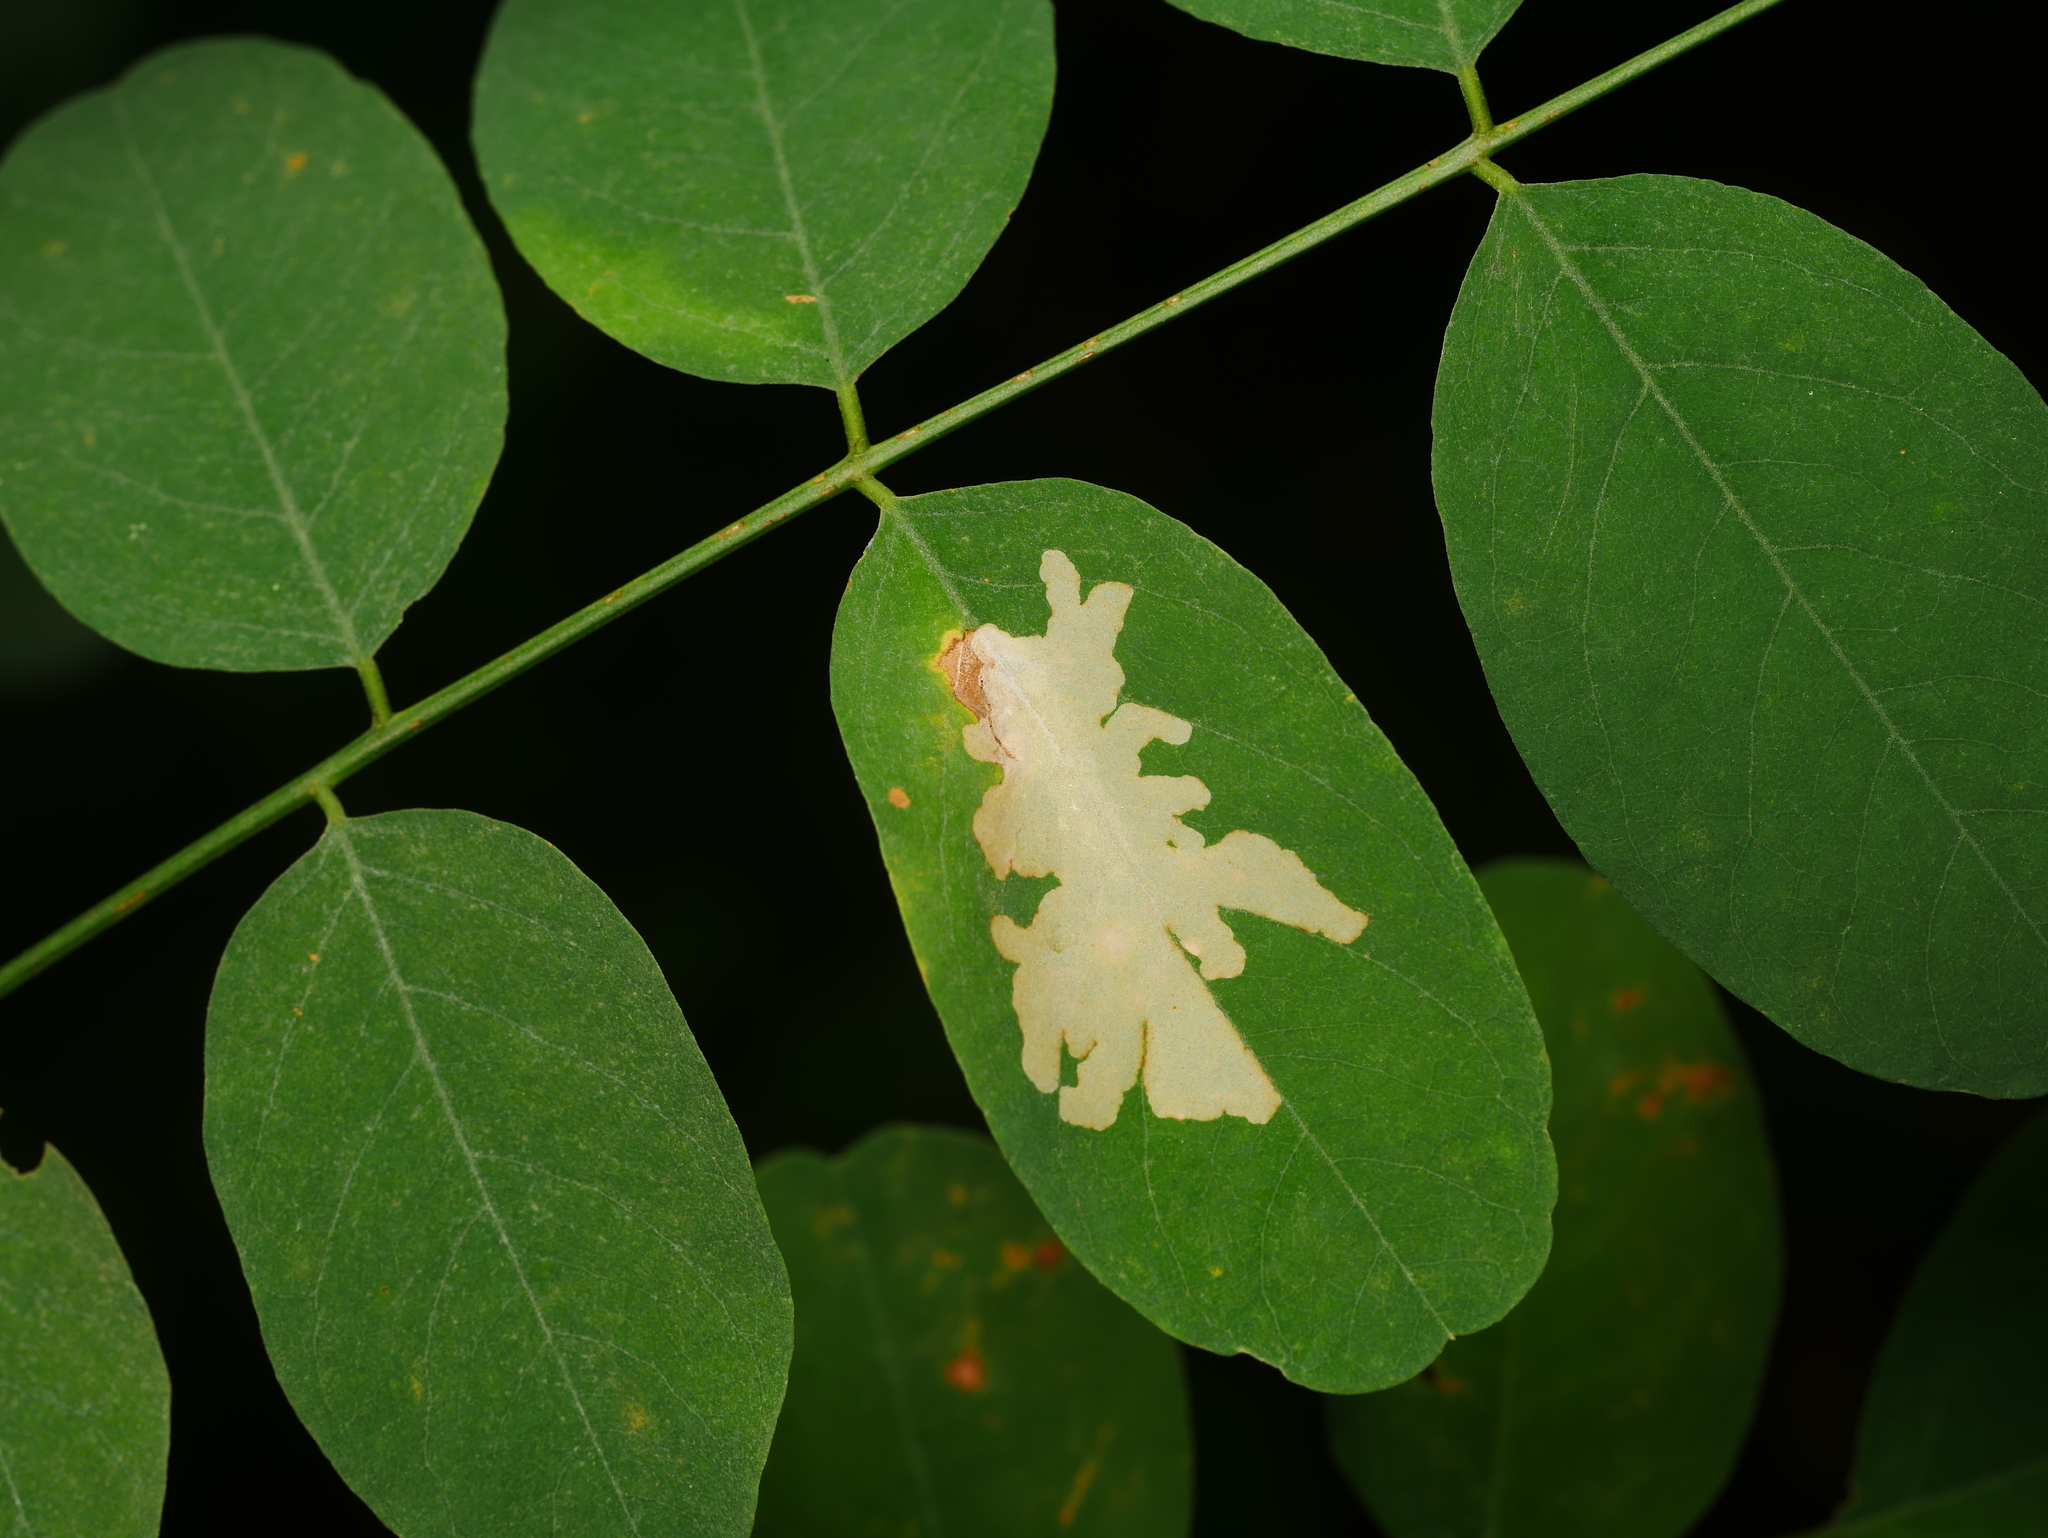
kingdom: Animalia
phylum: Arthropoda
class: Insecta
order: Lepidoptera
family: Gracillariidae
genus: Parectopa
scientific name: Parectopa robiniella
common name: Locust digitate leafminer
